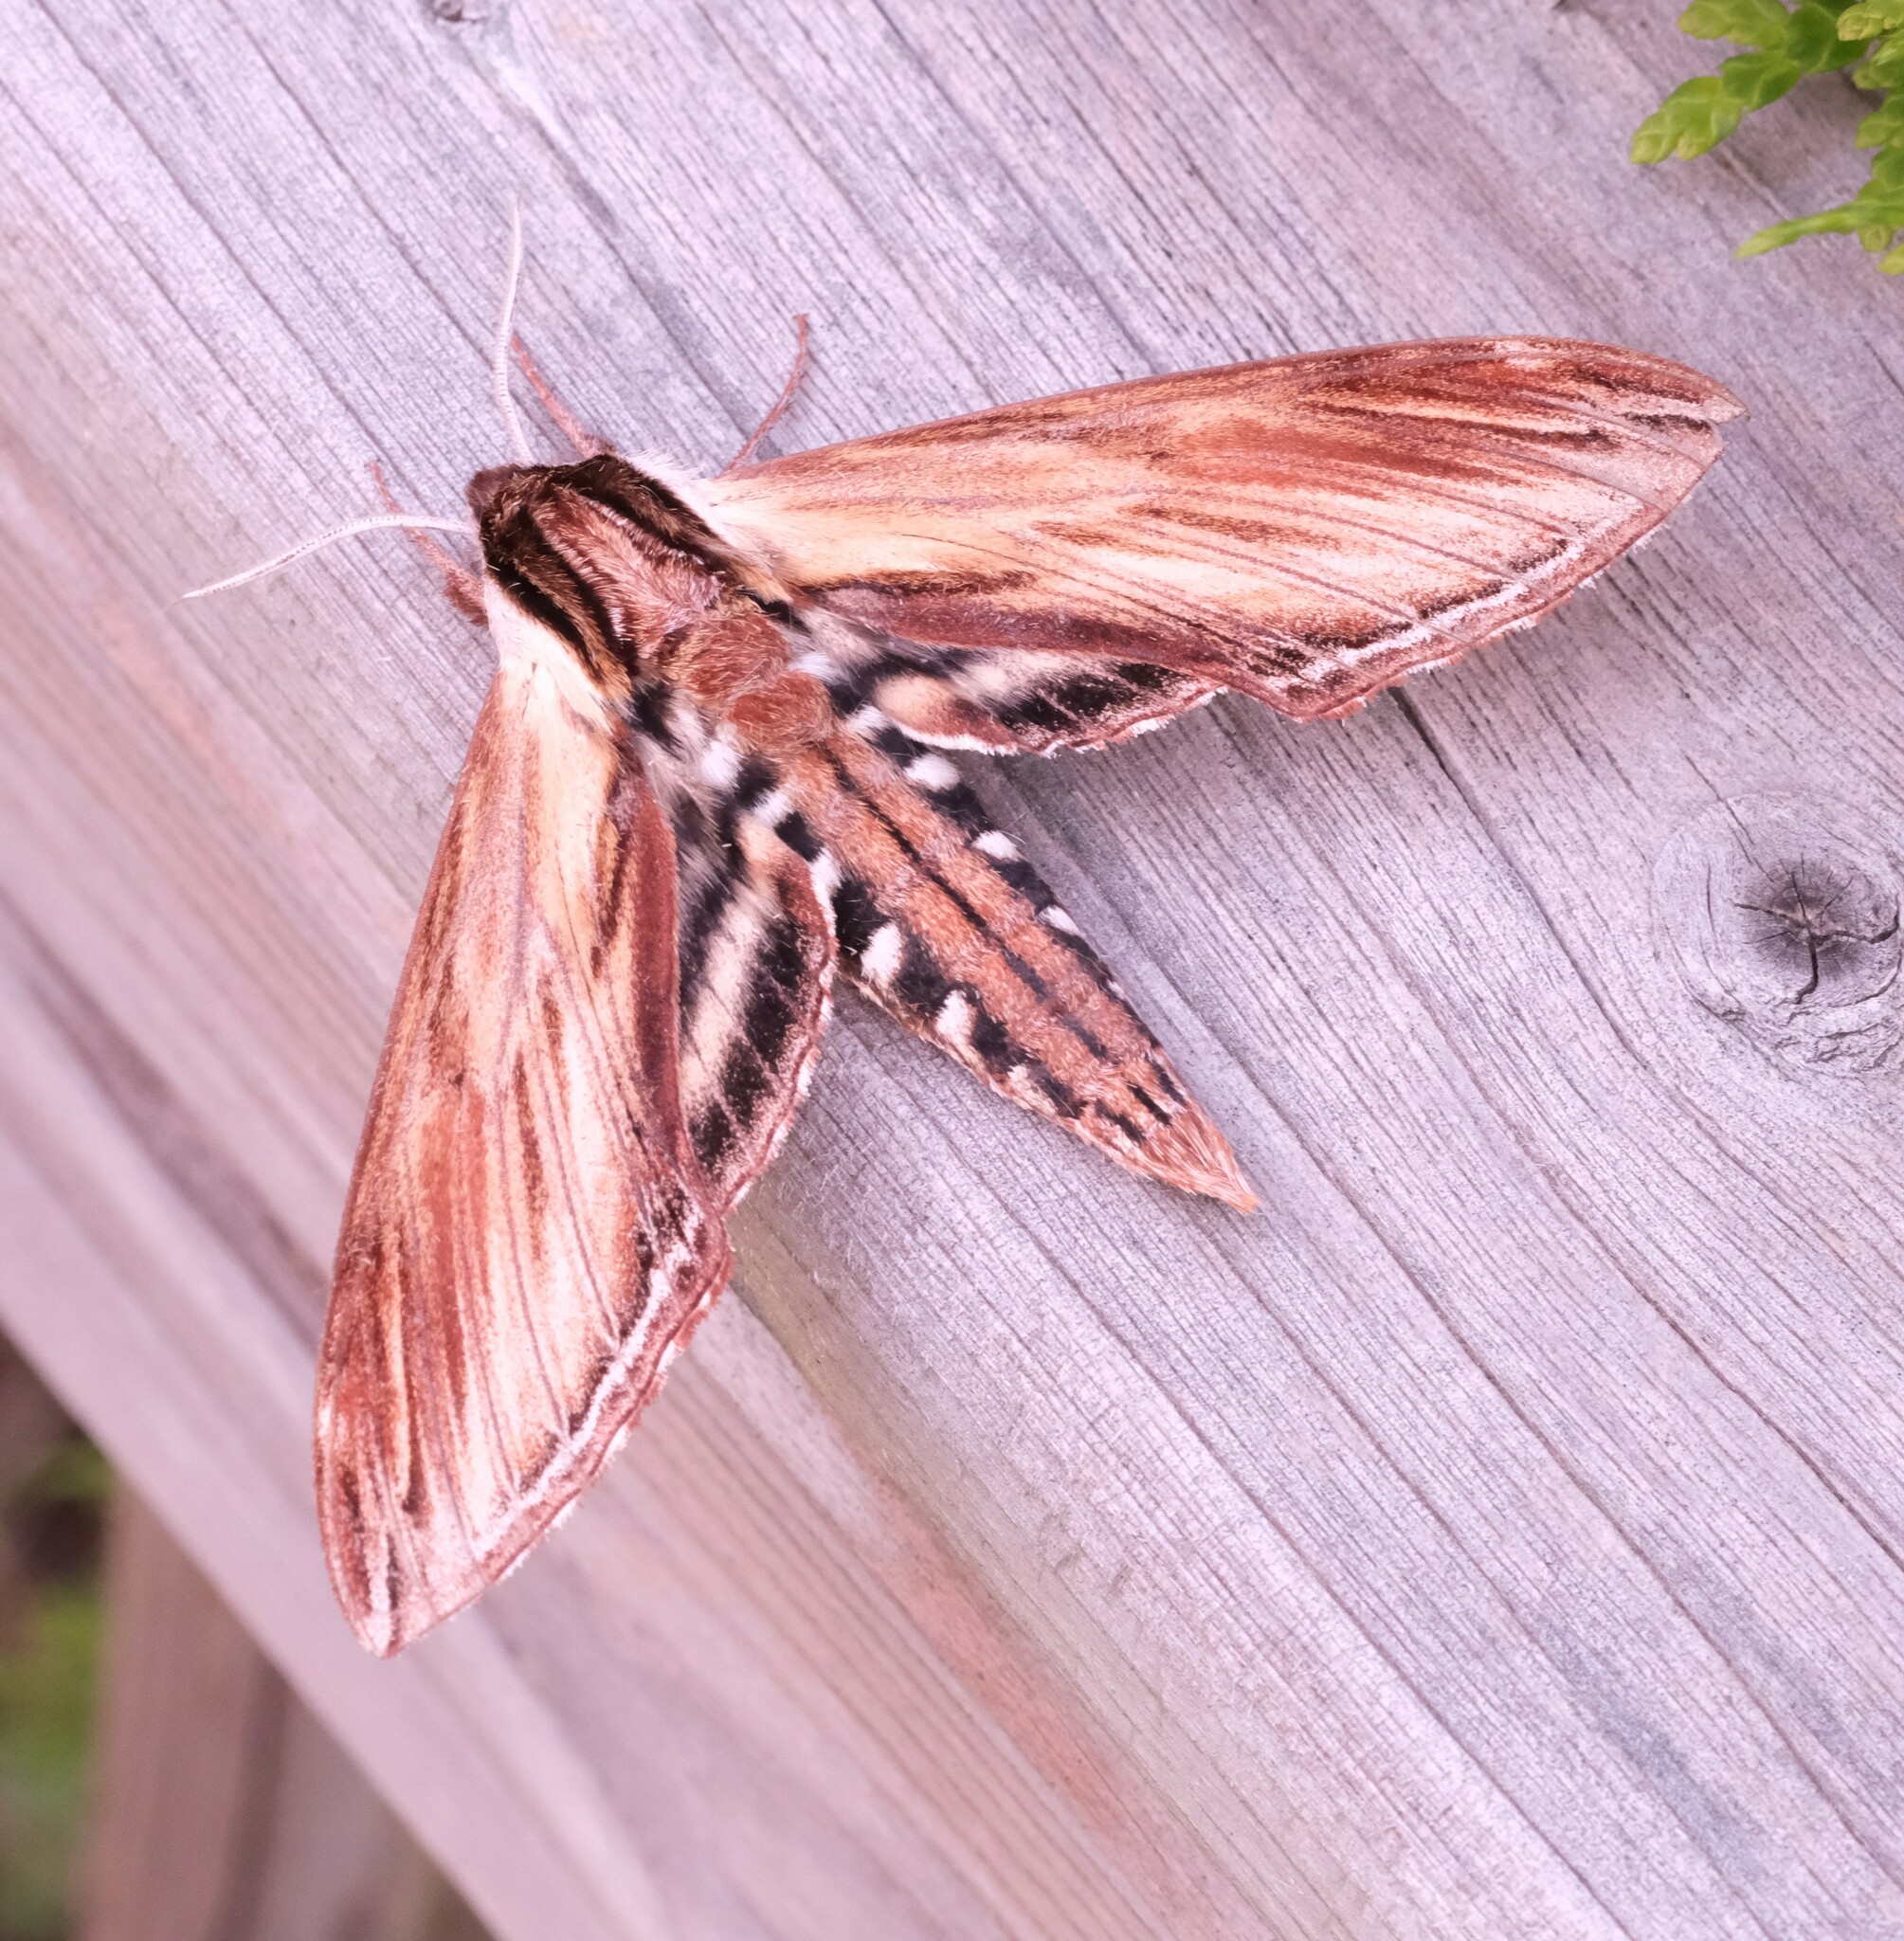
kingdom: Animalia
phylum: Arthropoda
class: Insecta
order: Lepidoptera
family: Sphingidae
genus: Sphinx
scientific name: Sphinx kalmiae
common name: Laurel sphinx
